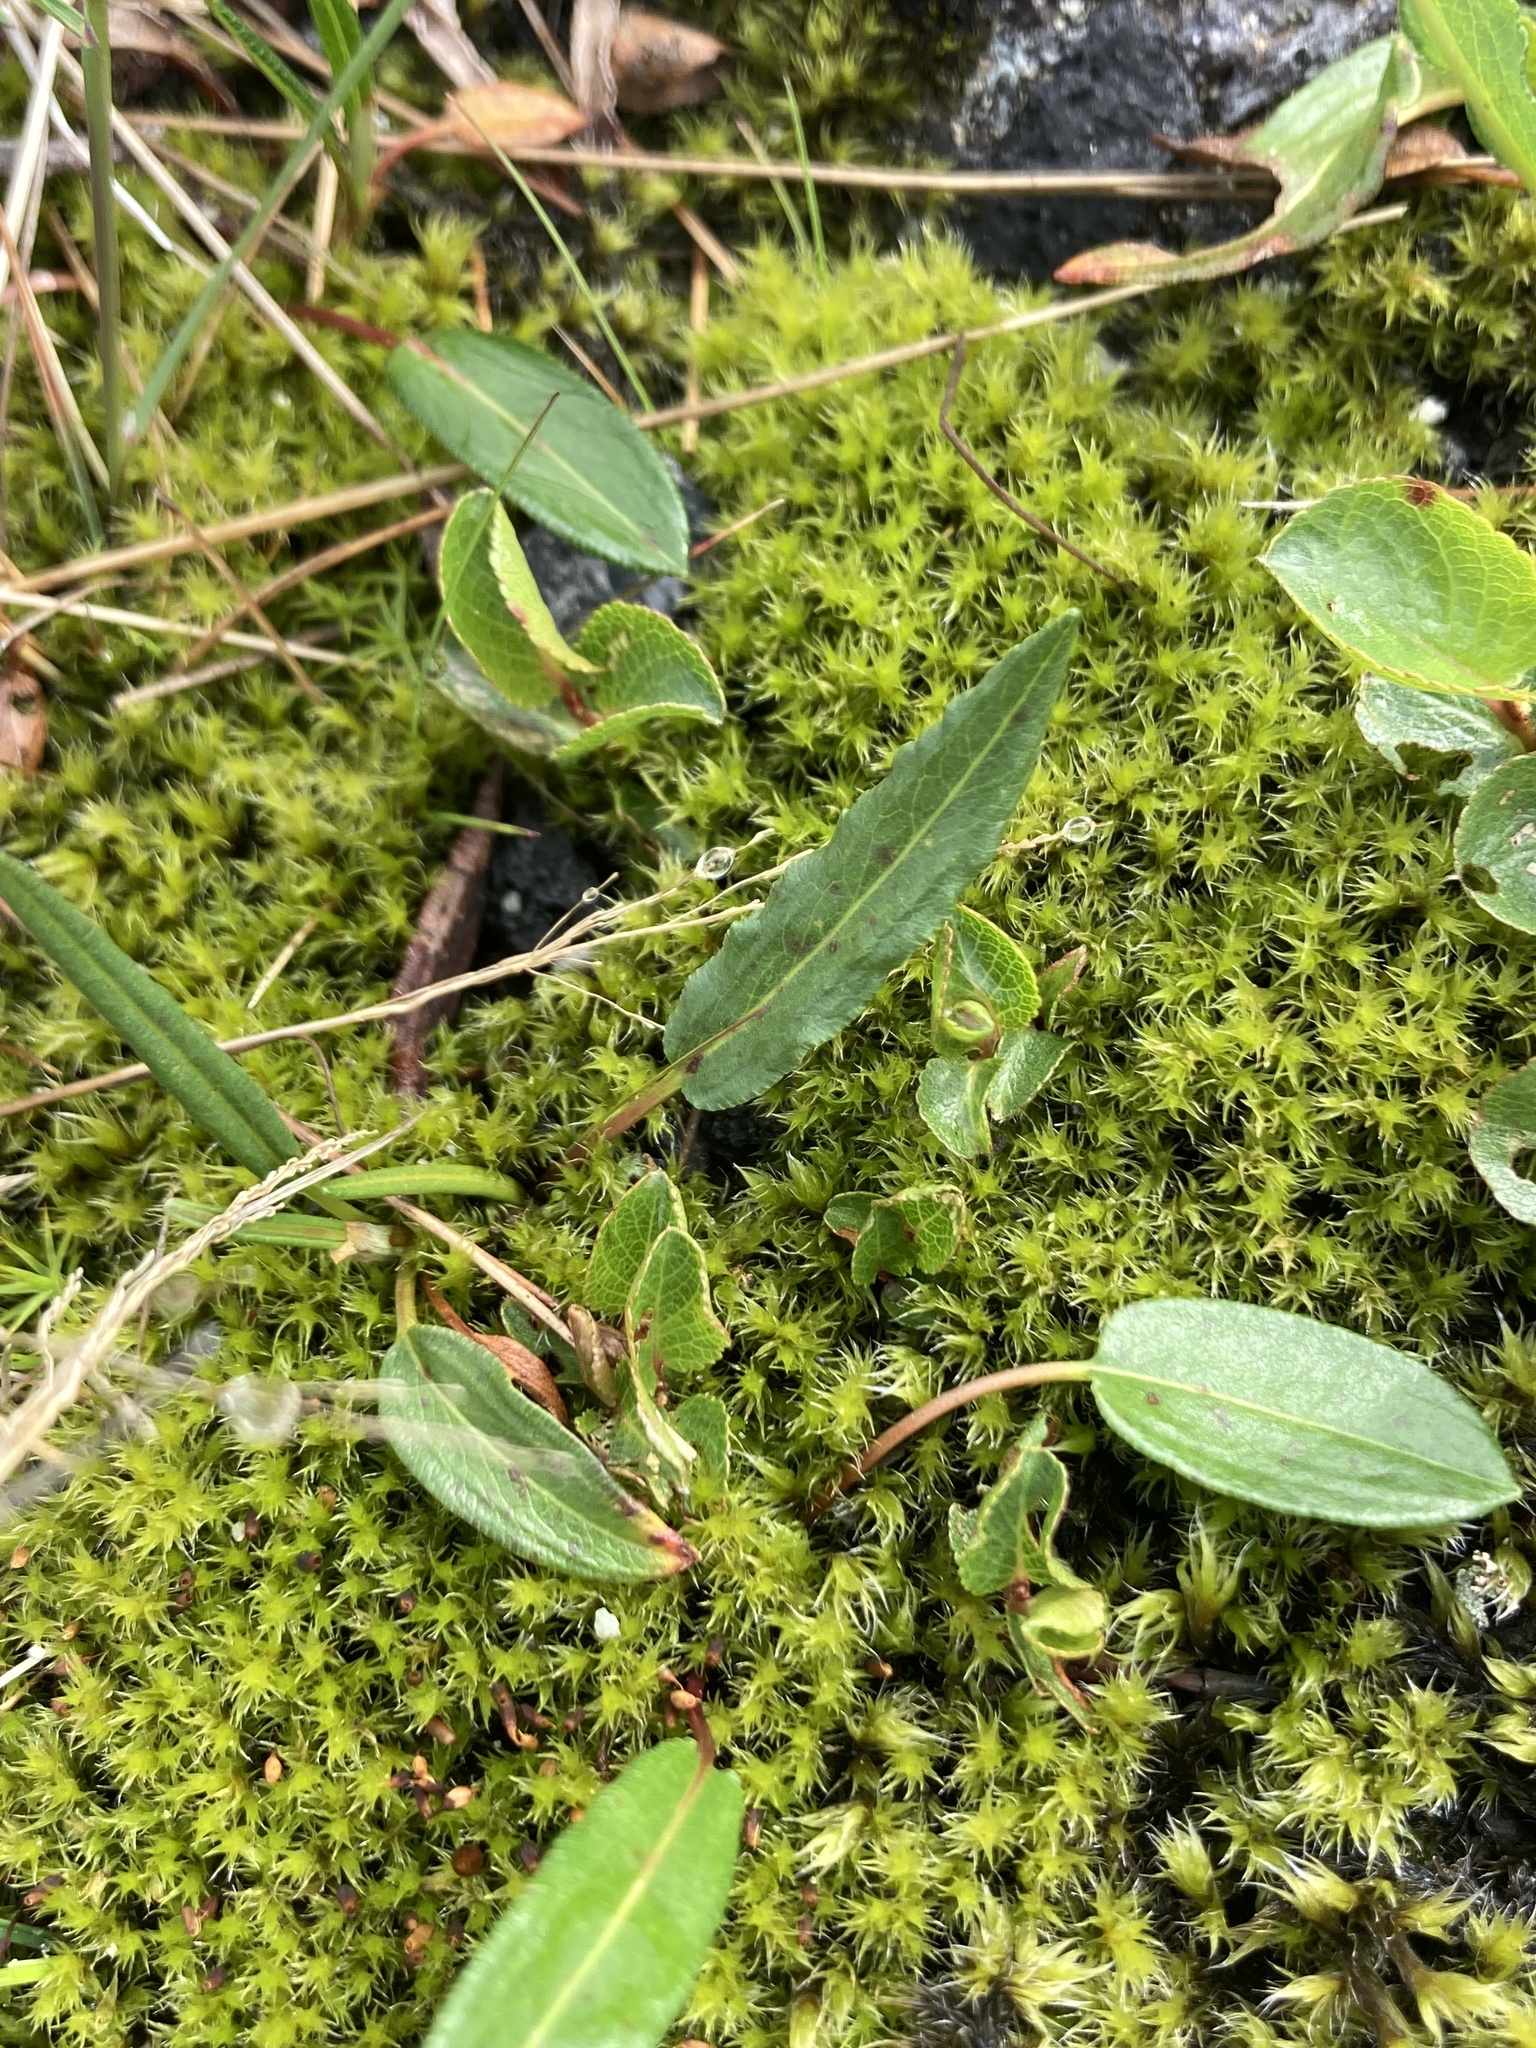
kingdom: Plantae
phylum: Tracheophyta
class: Magnoliopsida
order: Caryophyllales
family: Polygonaceae
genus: Bistorta
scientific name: Bistorta vivipara
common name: Alpine bistort
